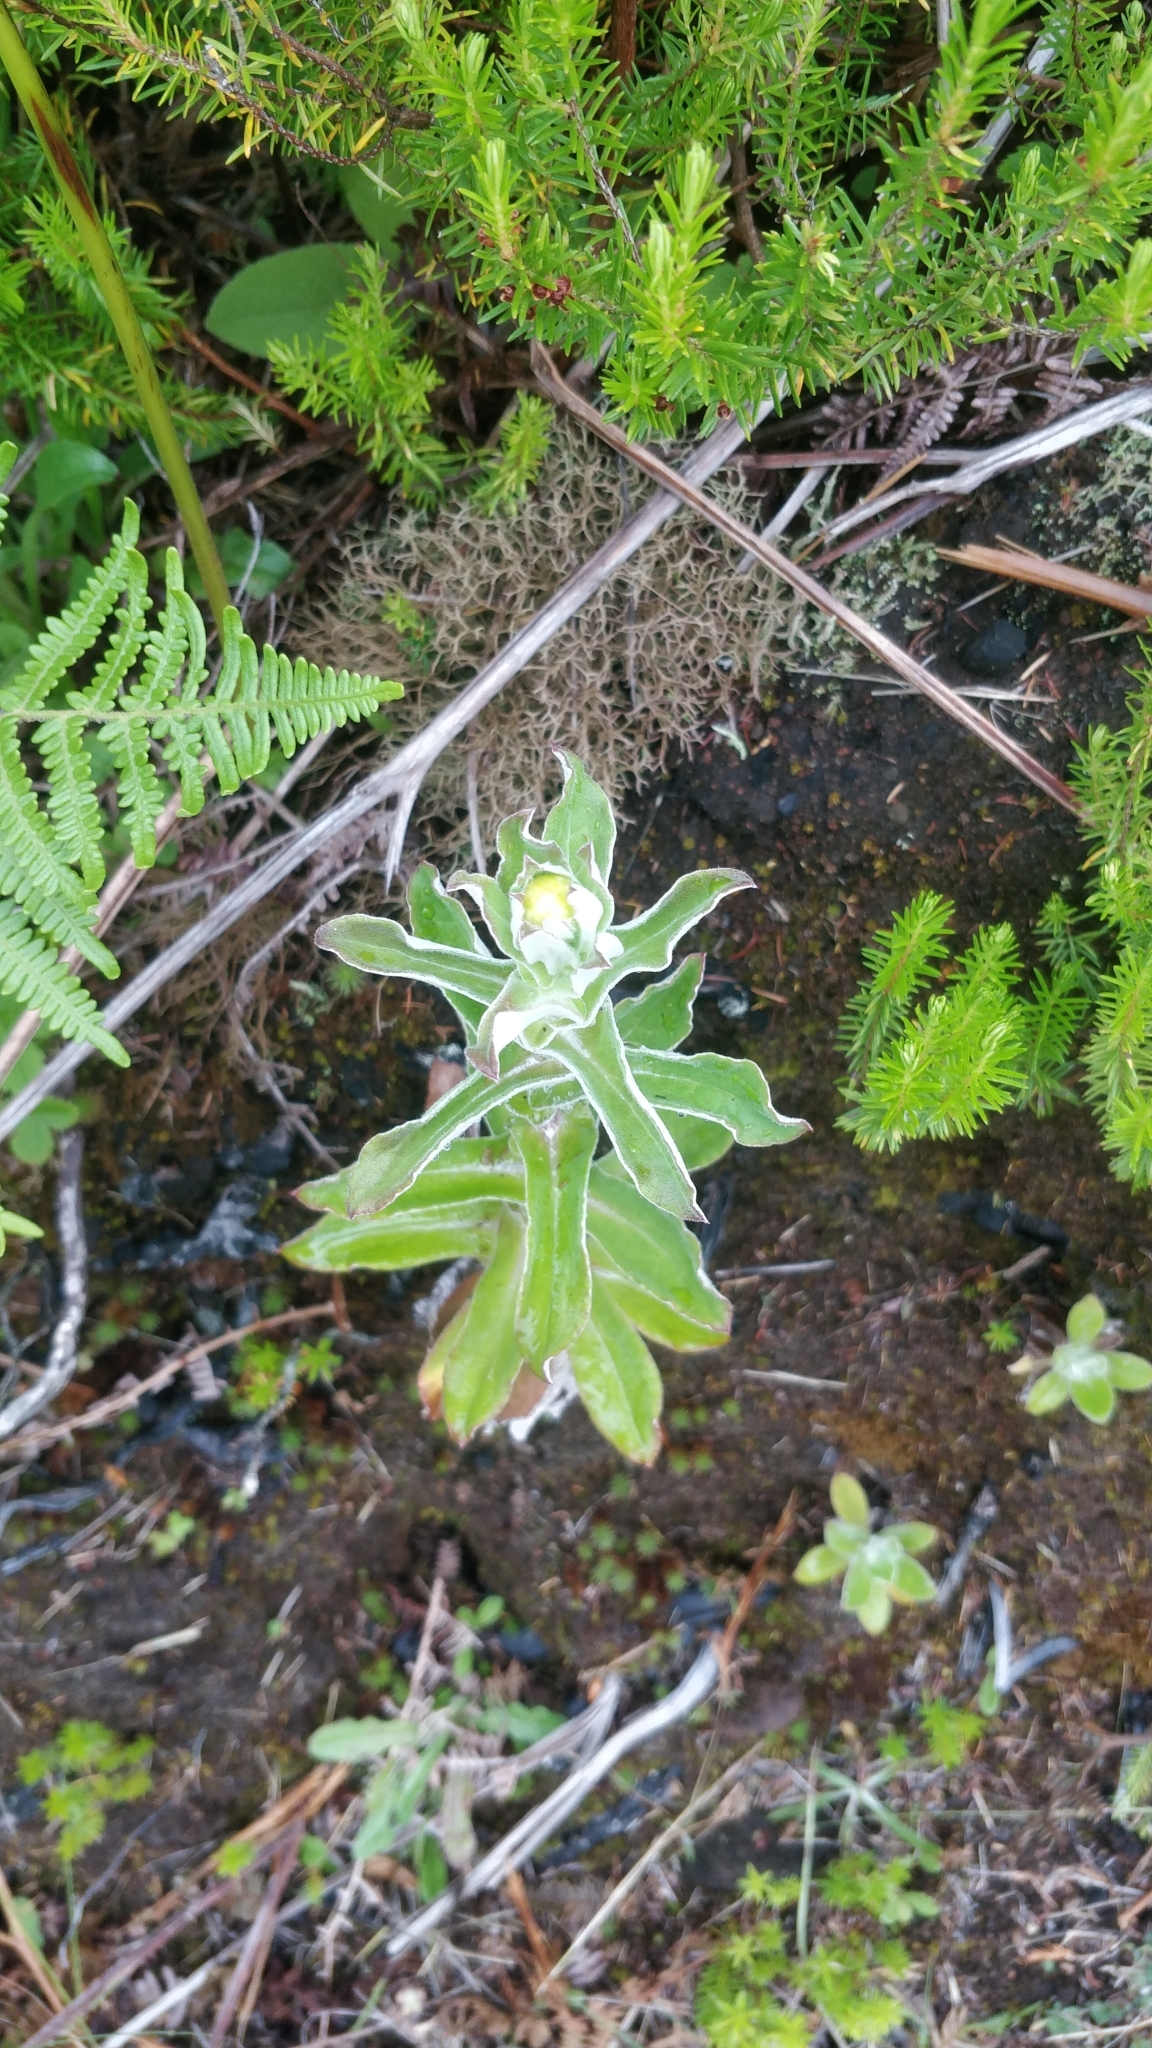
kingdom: Plantae
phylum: Tracheophyta
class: Magnoliopsida
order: Asterales
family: Asteraceae
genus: Helichrysum
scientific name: Helichrysum foetidum
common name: Stinking everlasting
